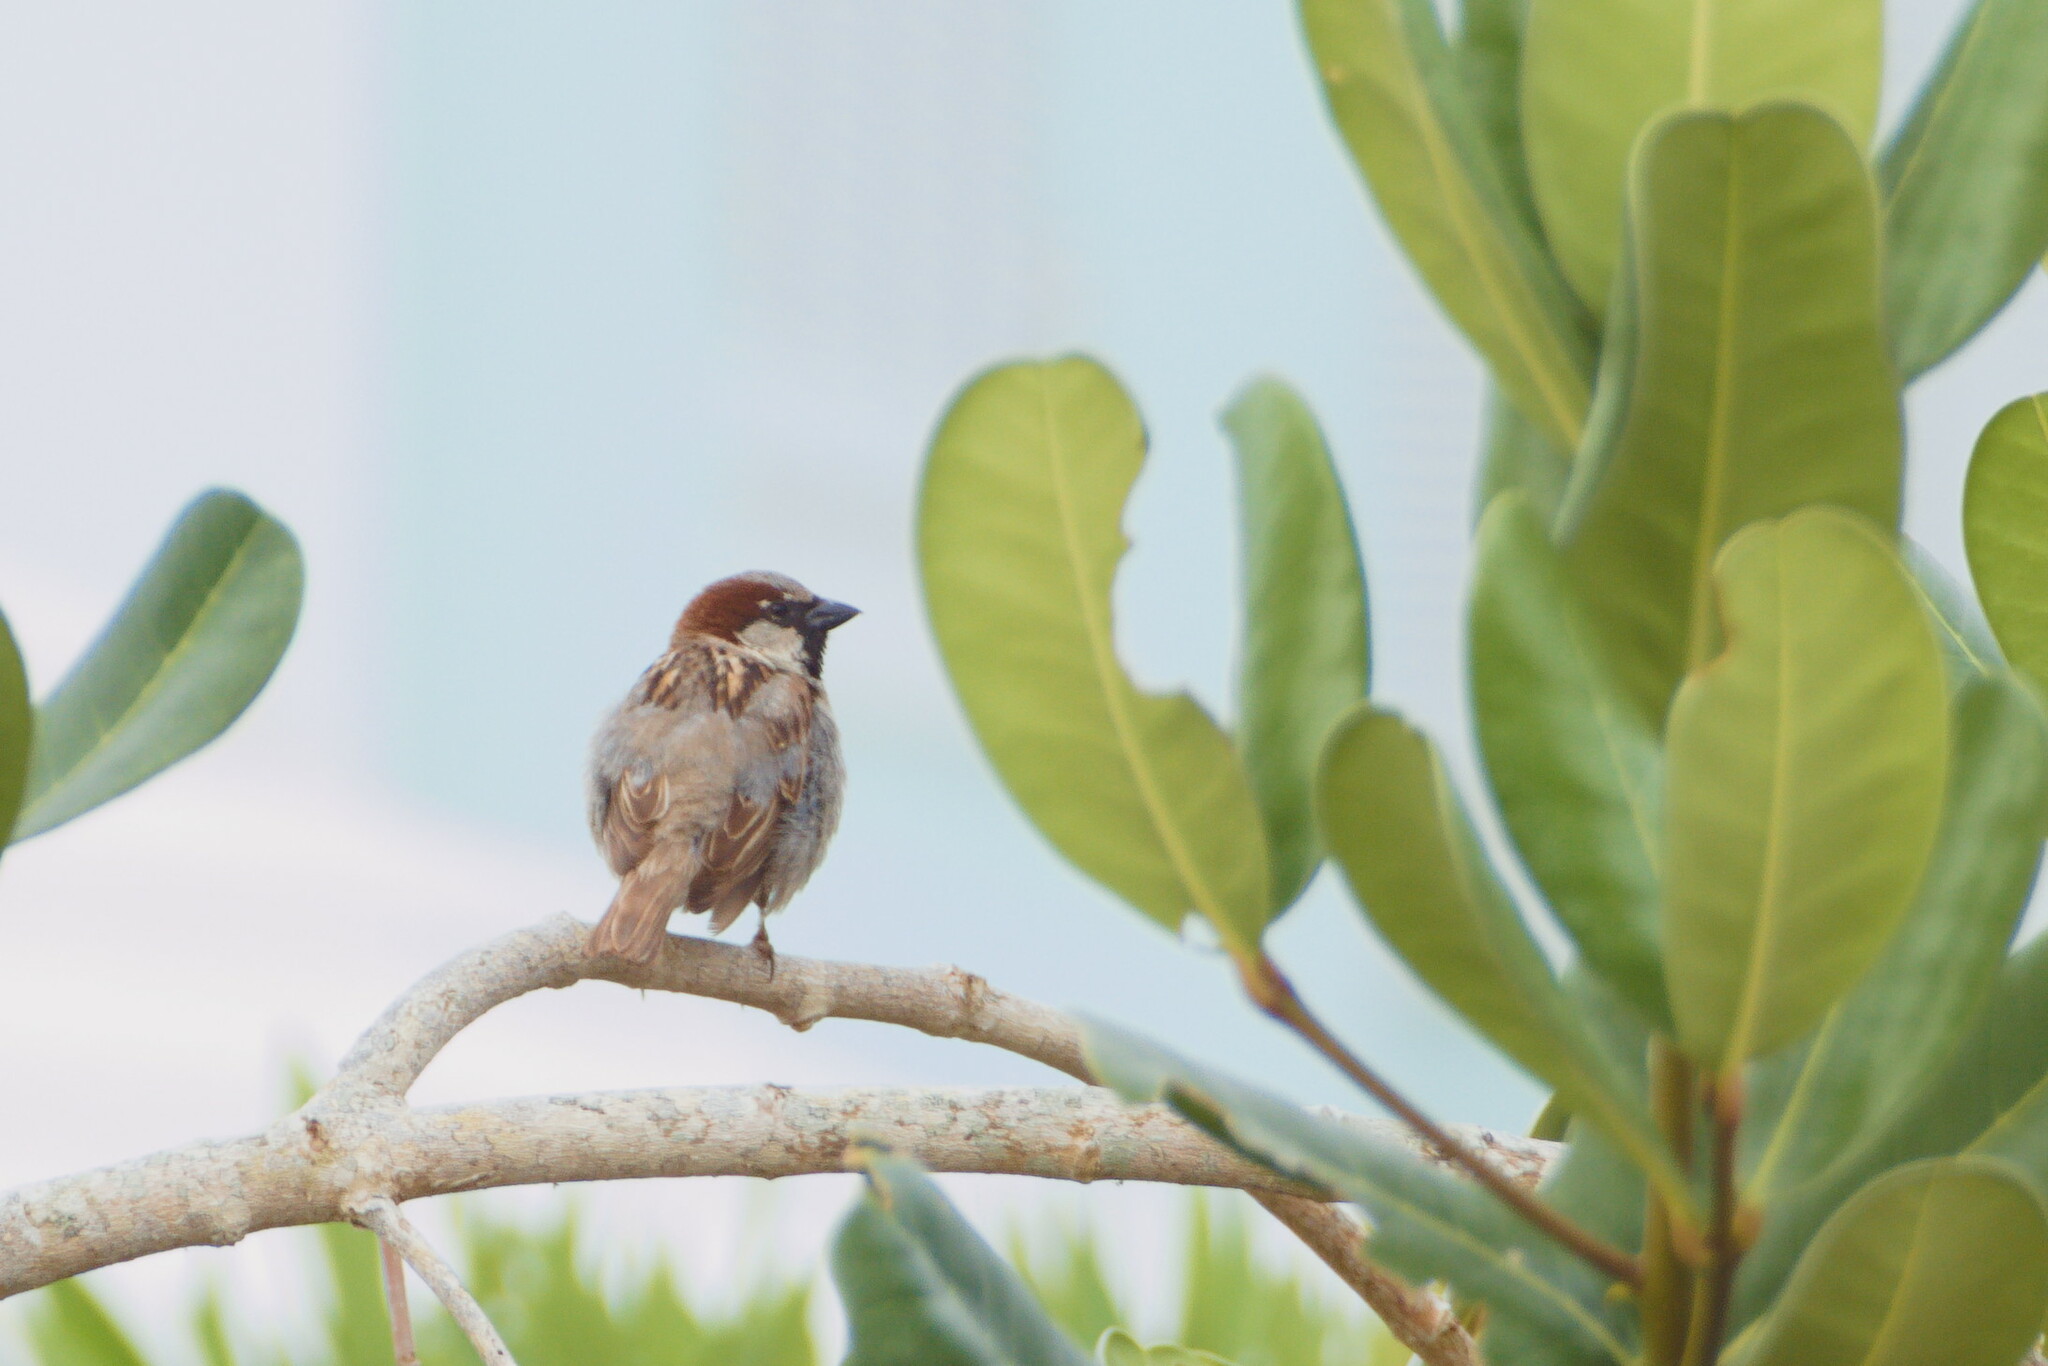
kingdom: Animalia
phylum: Chordata
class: Aves
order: Passeriformes
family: Passeridae
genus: Passer
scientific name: Passer domesticus
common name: House sparrow
